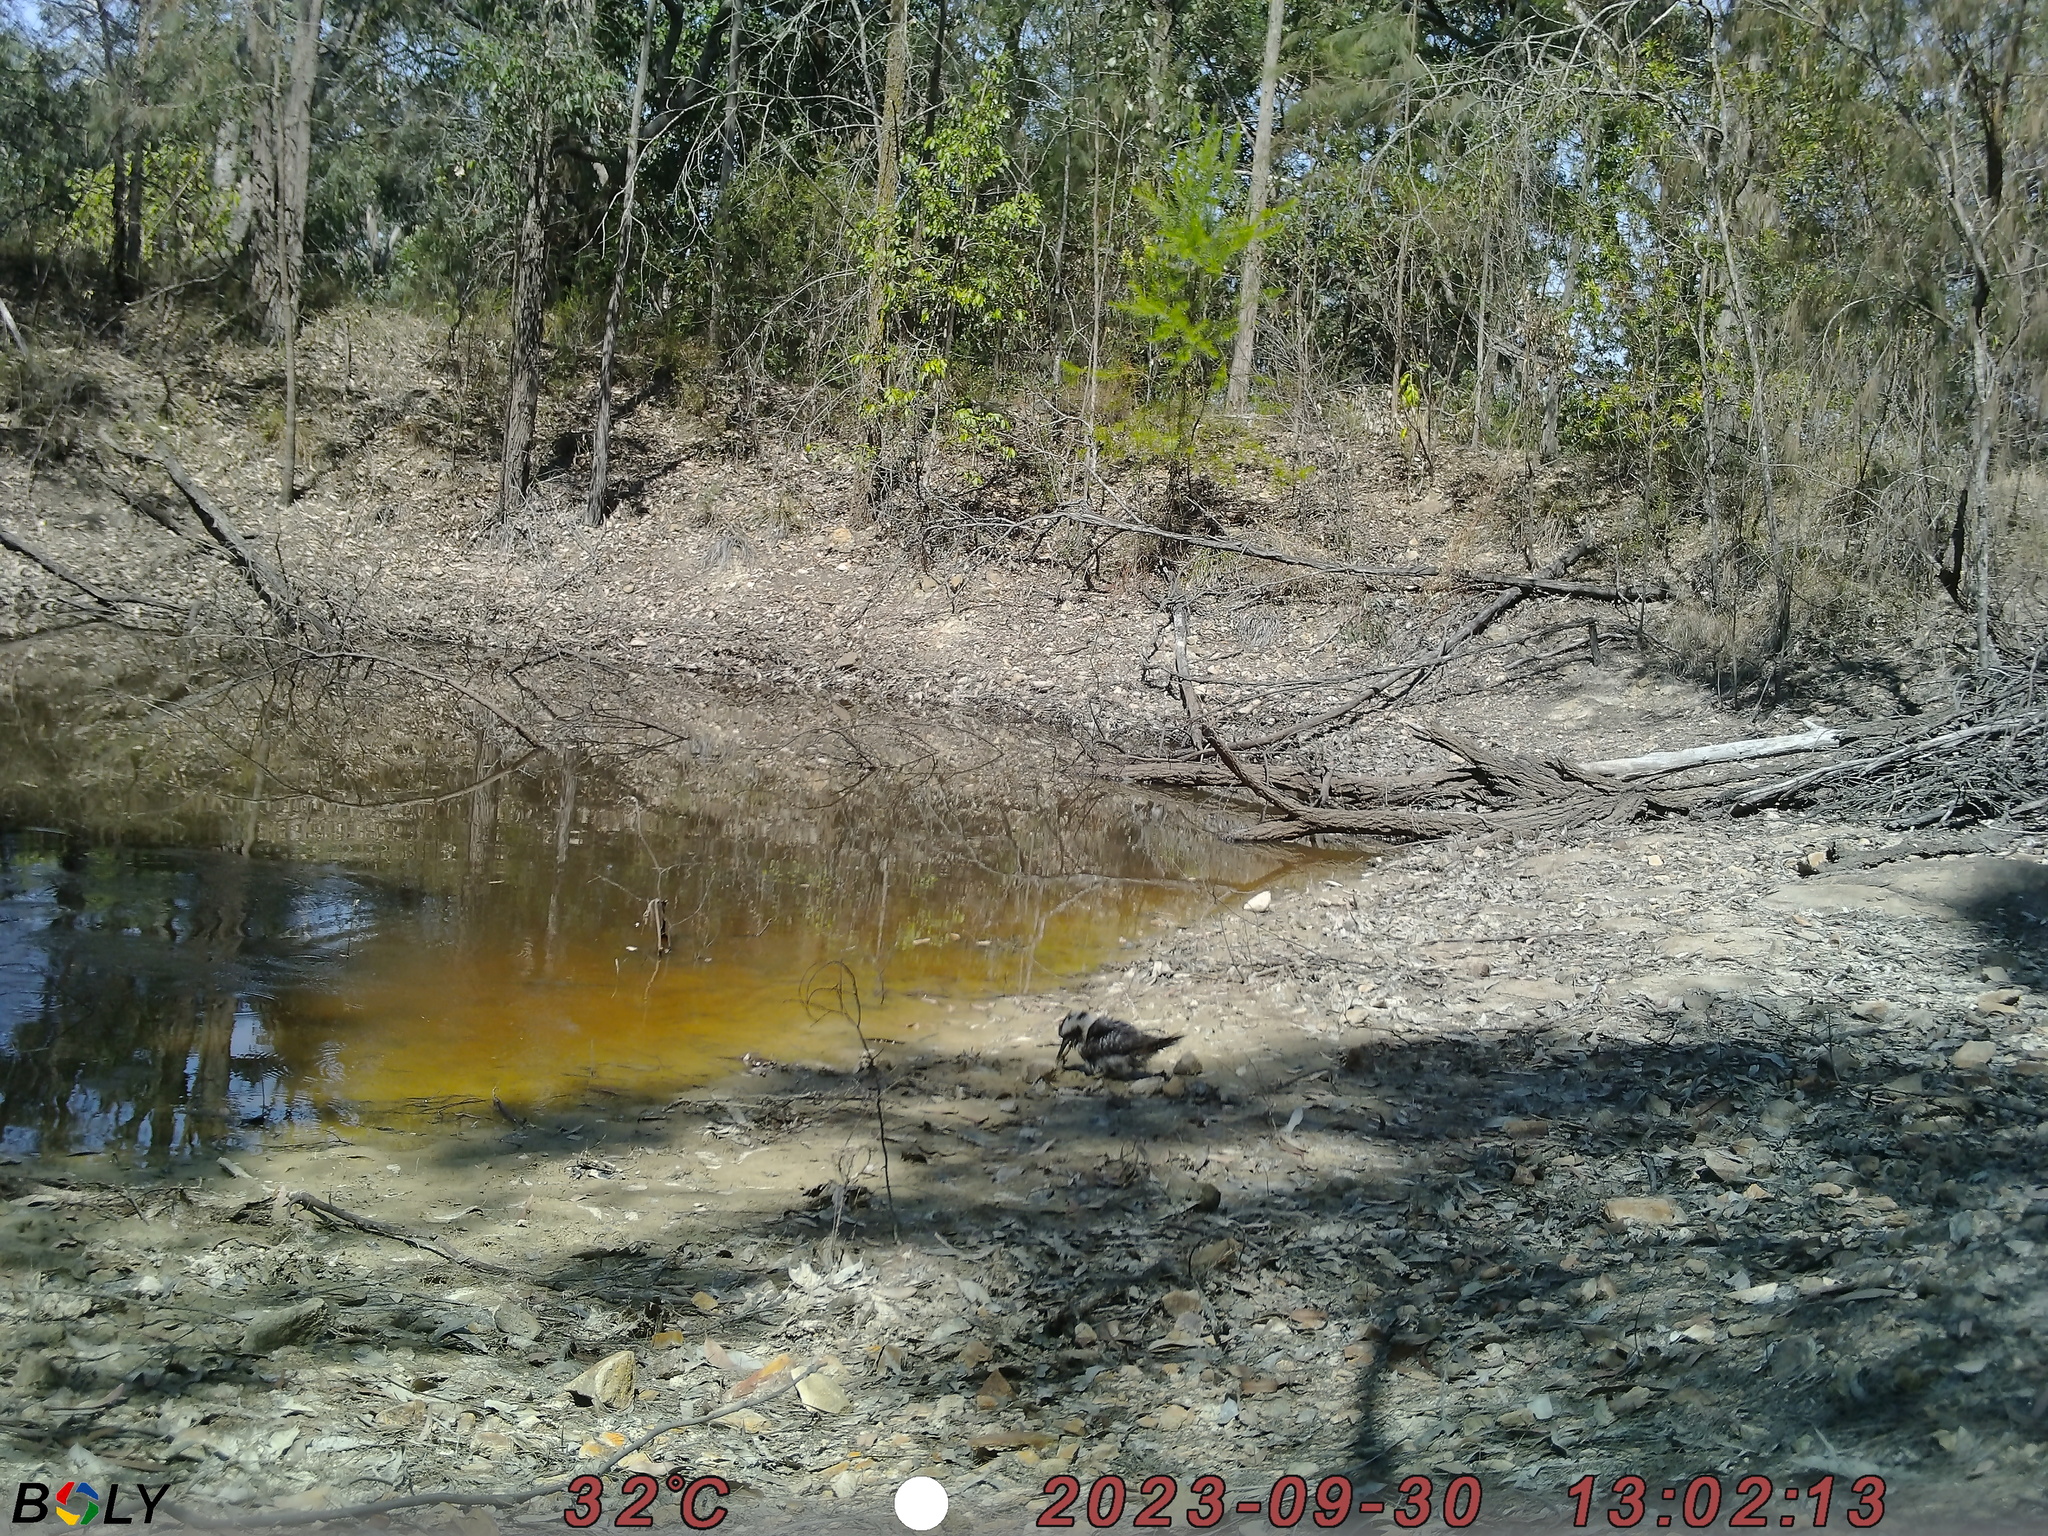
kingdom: Animalia
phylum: Chordata
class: Aves
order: Coraciiformes
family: Alcedinidae
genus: Dacelo
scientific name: Dacelo novaeguineae
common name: Laughing kookaburra
